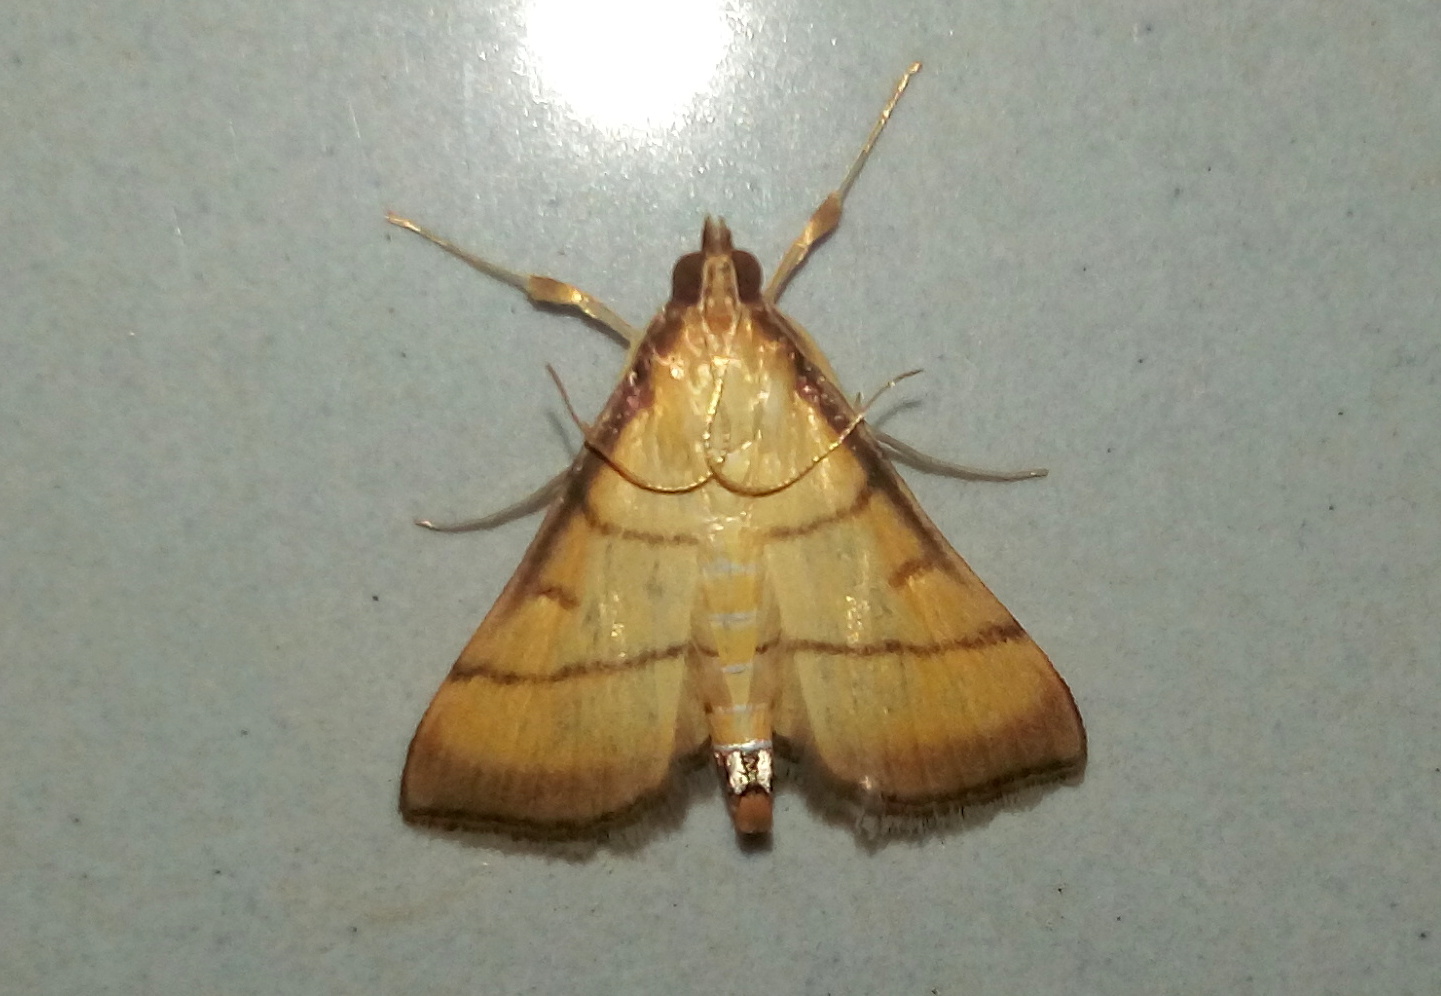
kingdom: Animalia
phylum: Arthropoda
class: Insecta
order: Lepidoptera
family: Crambidae
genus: Cnaphalocrocis
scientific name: Cnaphalocrocis medinalis
